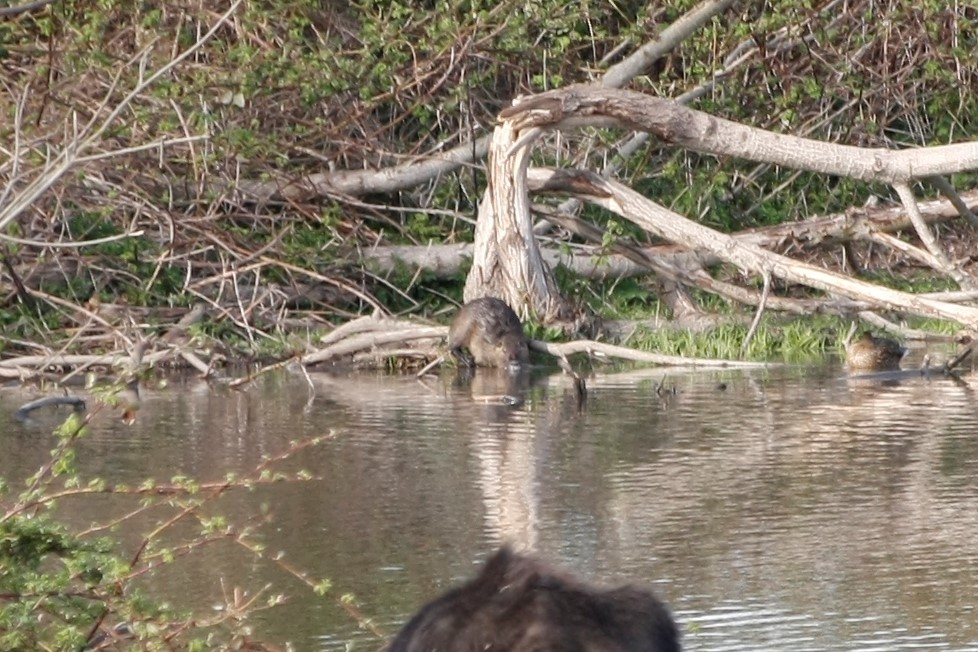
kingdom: Animalia
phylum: Chordata
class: Mammalia
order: Rodentia
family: Myocastoridae
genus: Myocastor
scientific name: Myocastor coypus
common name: Coypu
